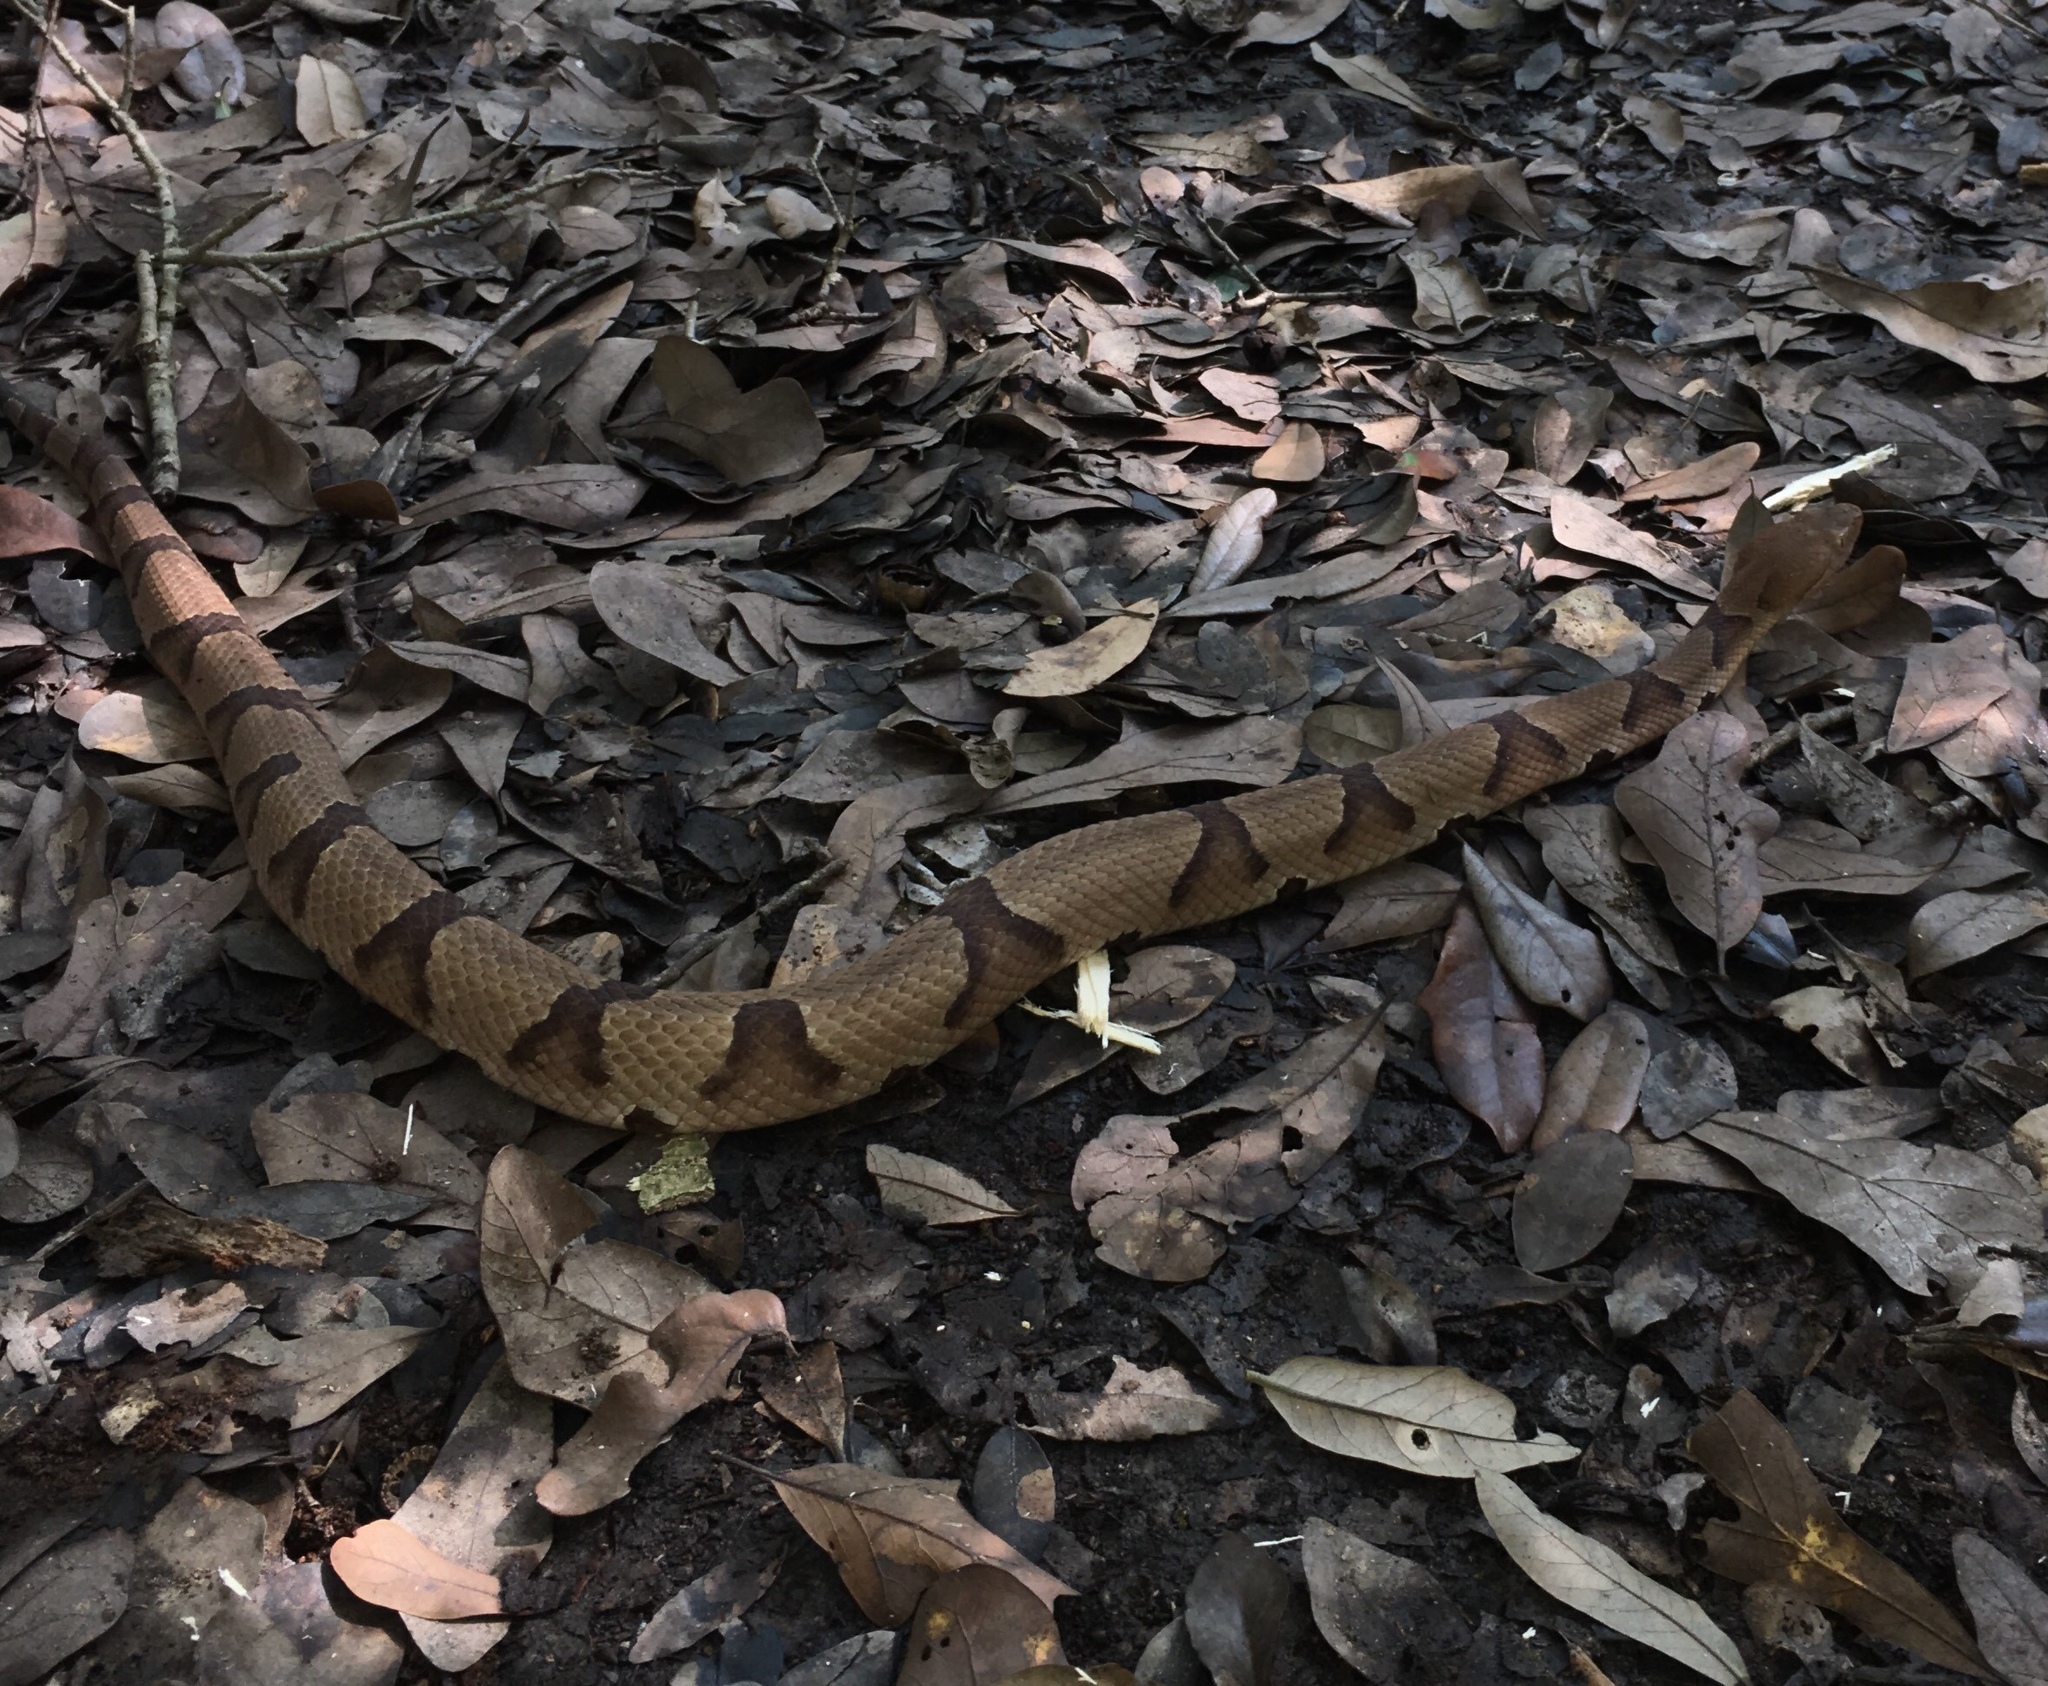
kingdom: Animalia
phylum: Chordata
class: Squamata
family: Viperidae
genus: Agkistrodon
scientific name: Agkistrodon contortrix
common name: Northern copperhead
